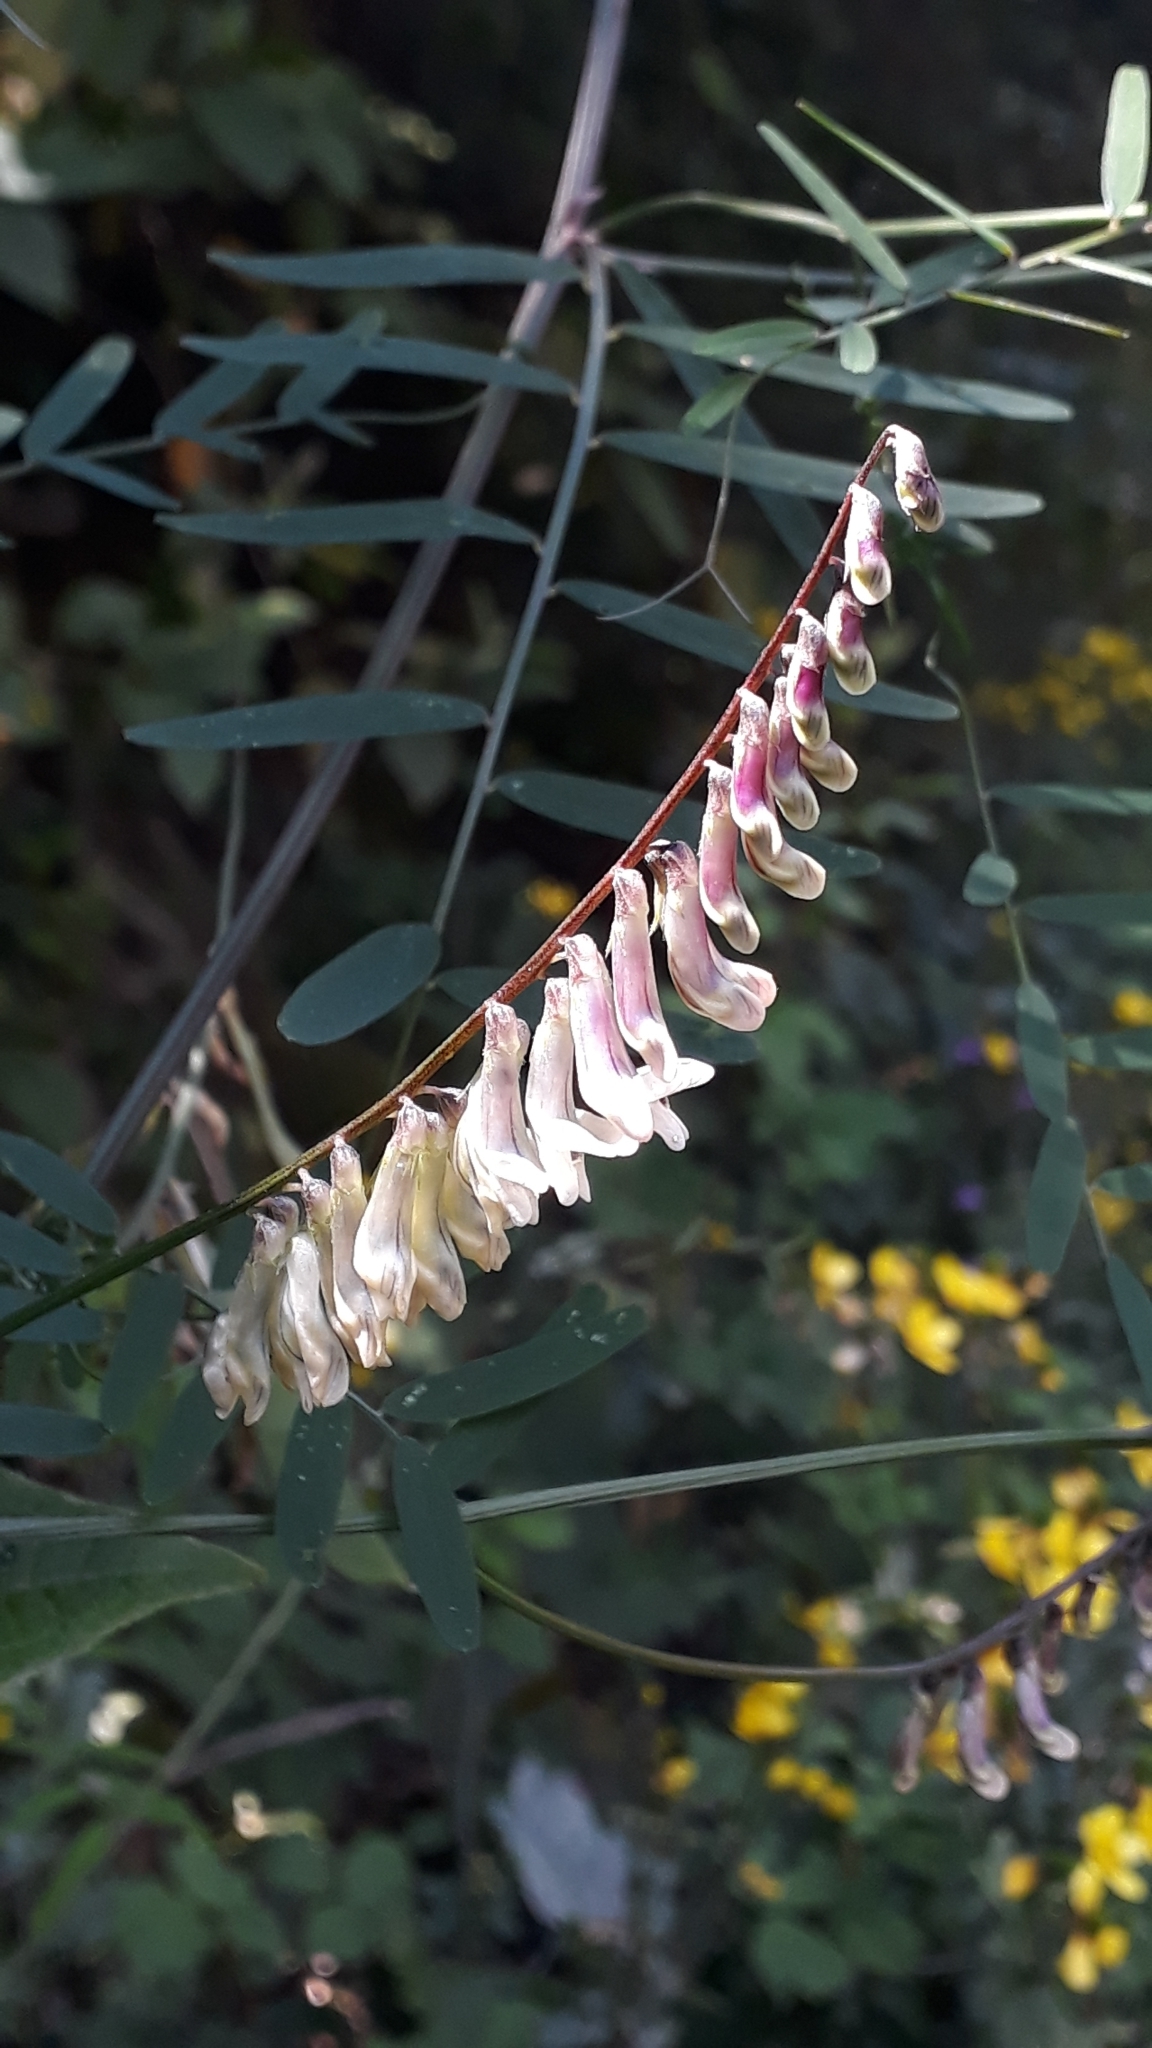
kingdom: Plantae
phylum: Tracheophyta
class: Magnoliopsida
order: Fabales
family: Fabaceae
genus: Vicia
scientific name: Vicia scandens
